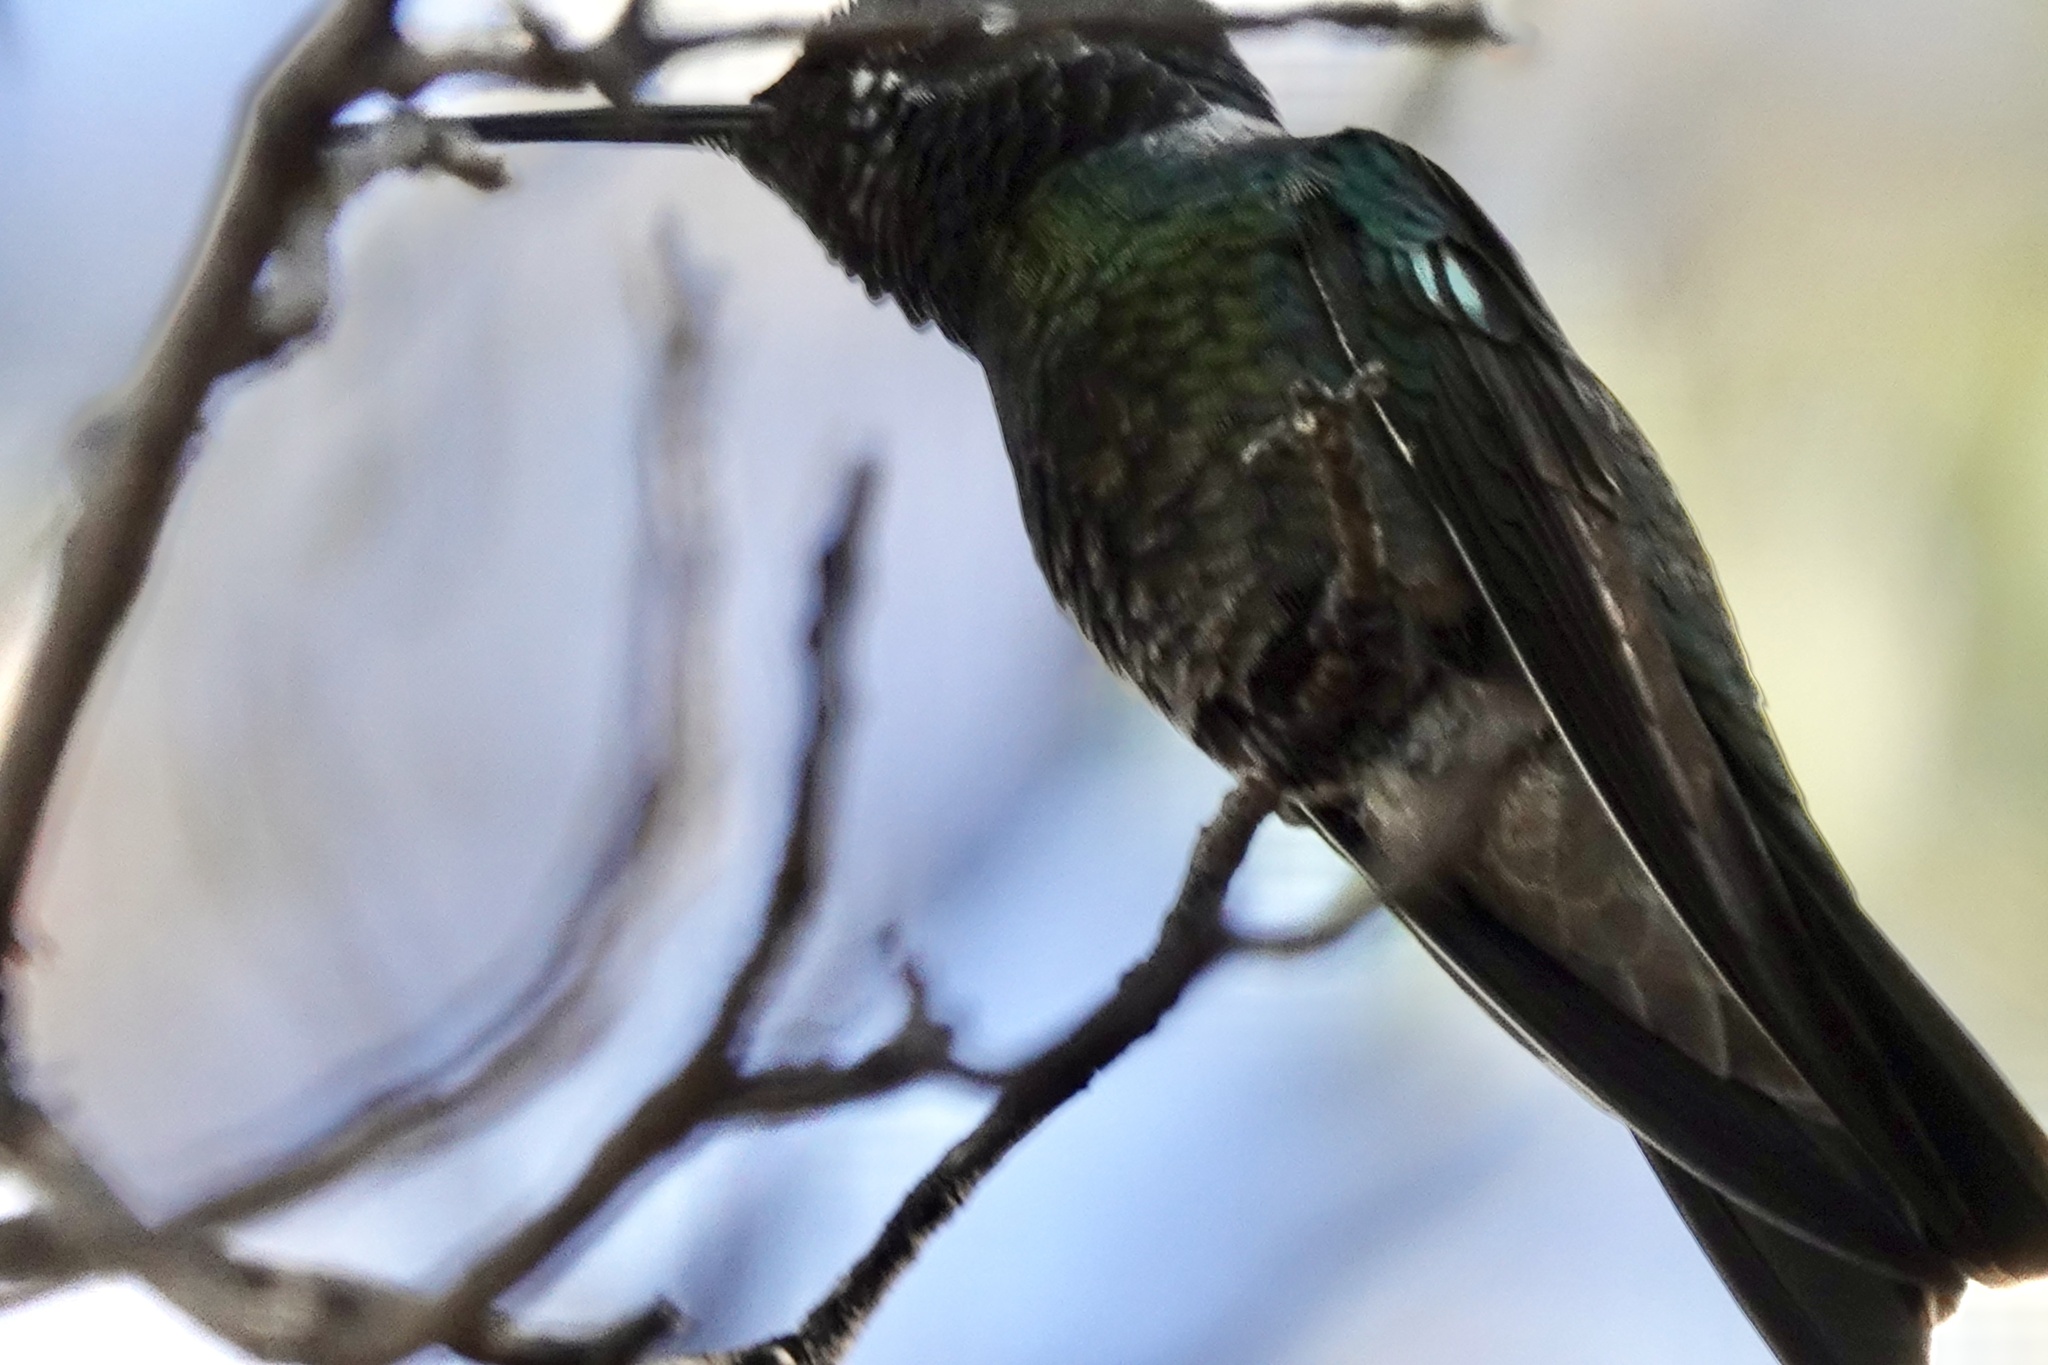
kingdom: Animalia
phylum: Chordata
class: Aves
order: Apodiformes
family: Trochilidae
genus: Eugenes
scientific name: Eugenes fulgens
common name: Magnificent hummingbird
